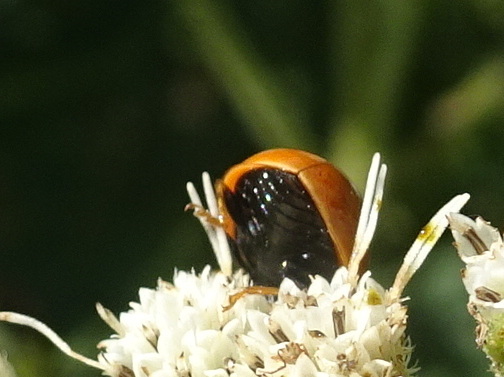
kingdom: Animalia
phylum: Arthropoda
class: Insecta
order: Coleoptera
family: Coccinellidae
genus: Cycloneda
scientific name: Cycloneda munda
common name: Polished lady beetle
